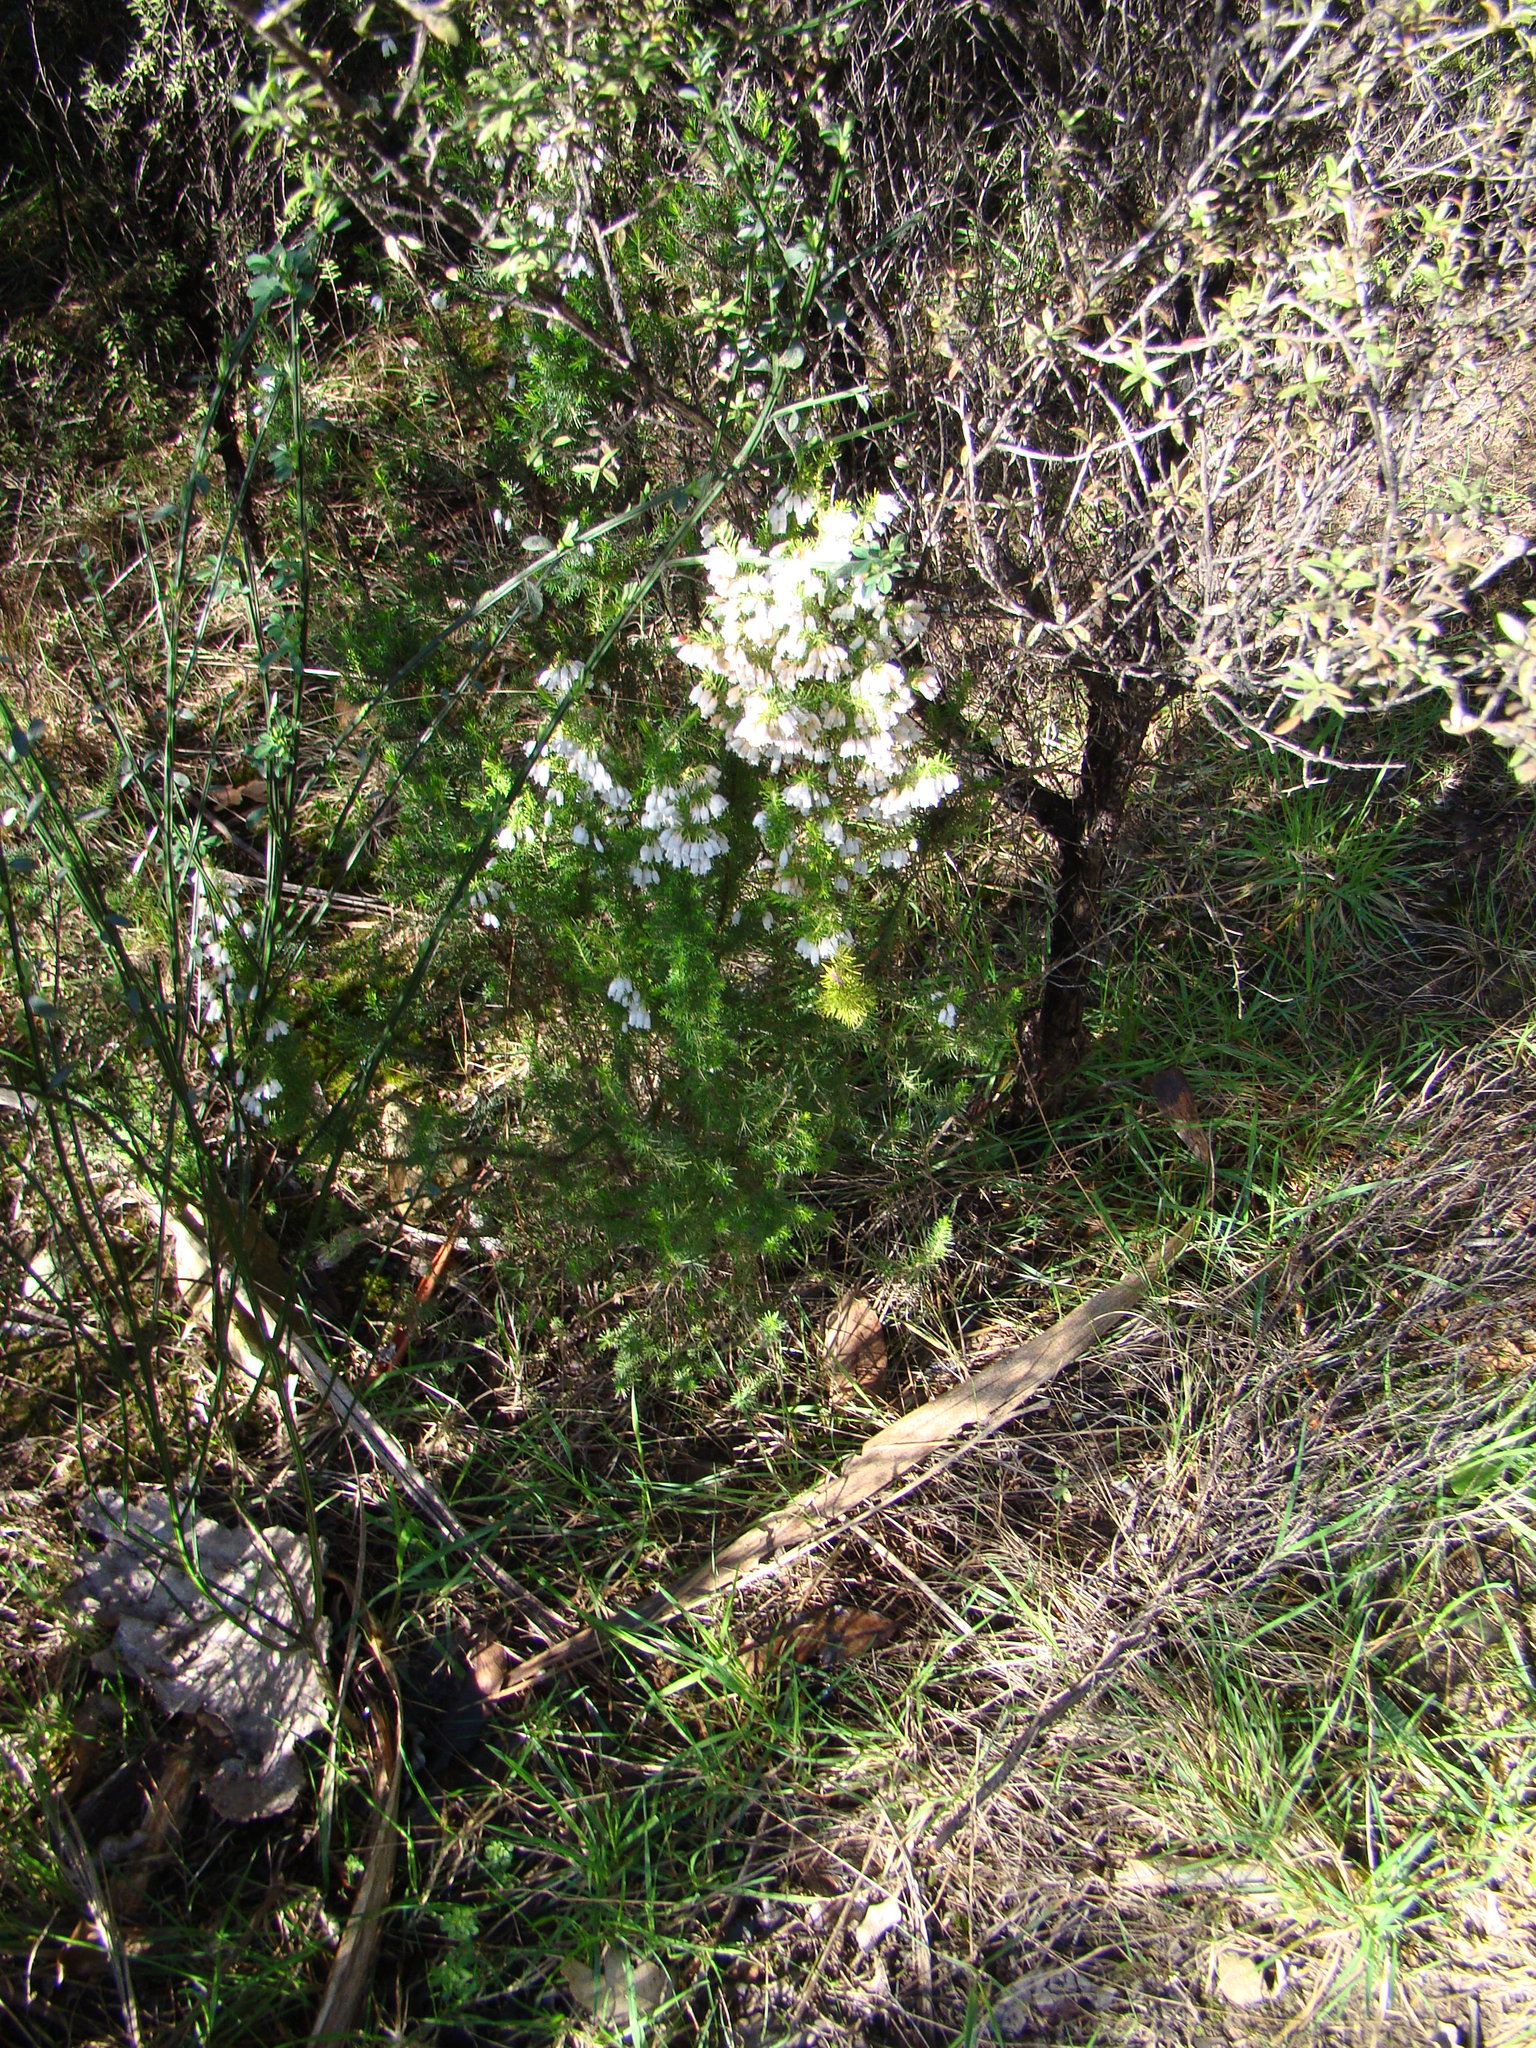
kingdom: Plantae
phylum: Tracheophyta
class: Magnoliopsida
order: Ericales
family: Ericaceae
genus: Erica
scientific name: Erica lusitanica
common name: Spanish heath
